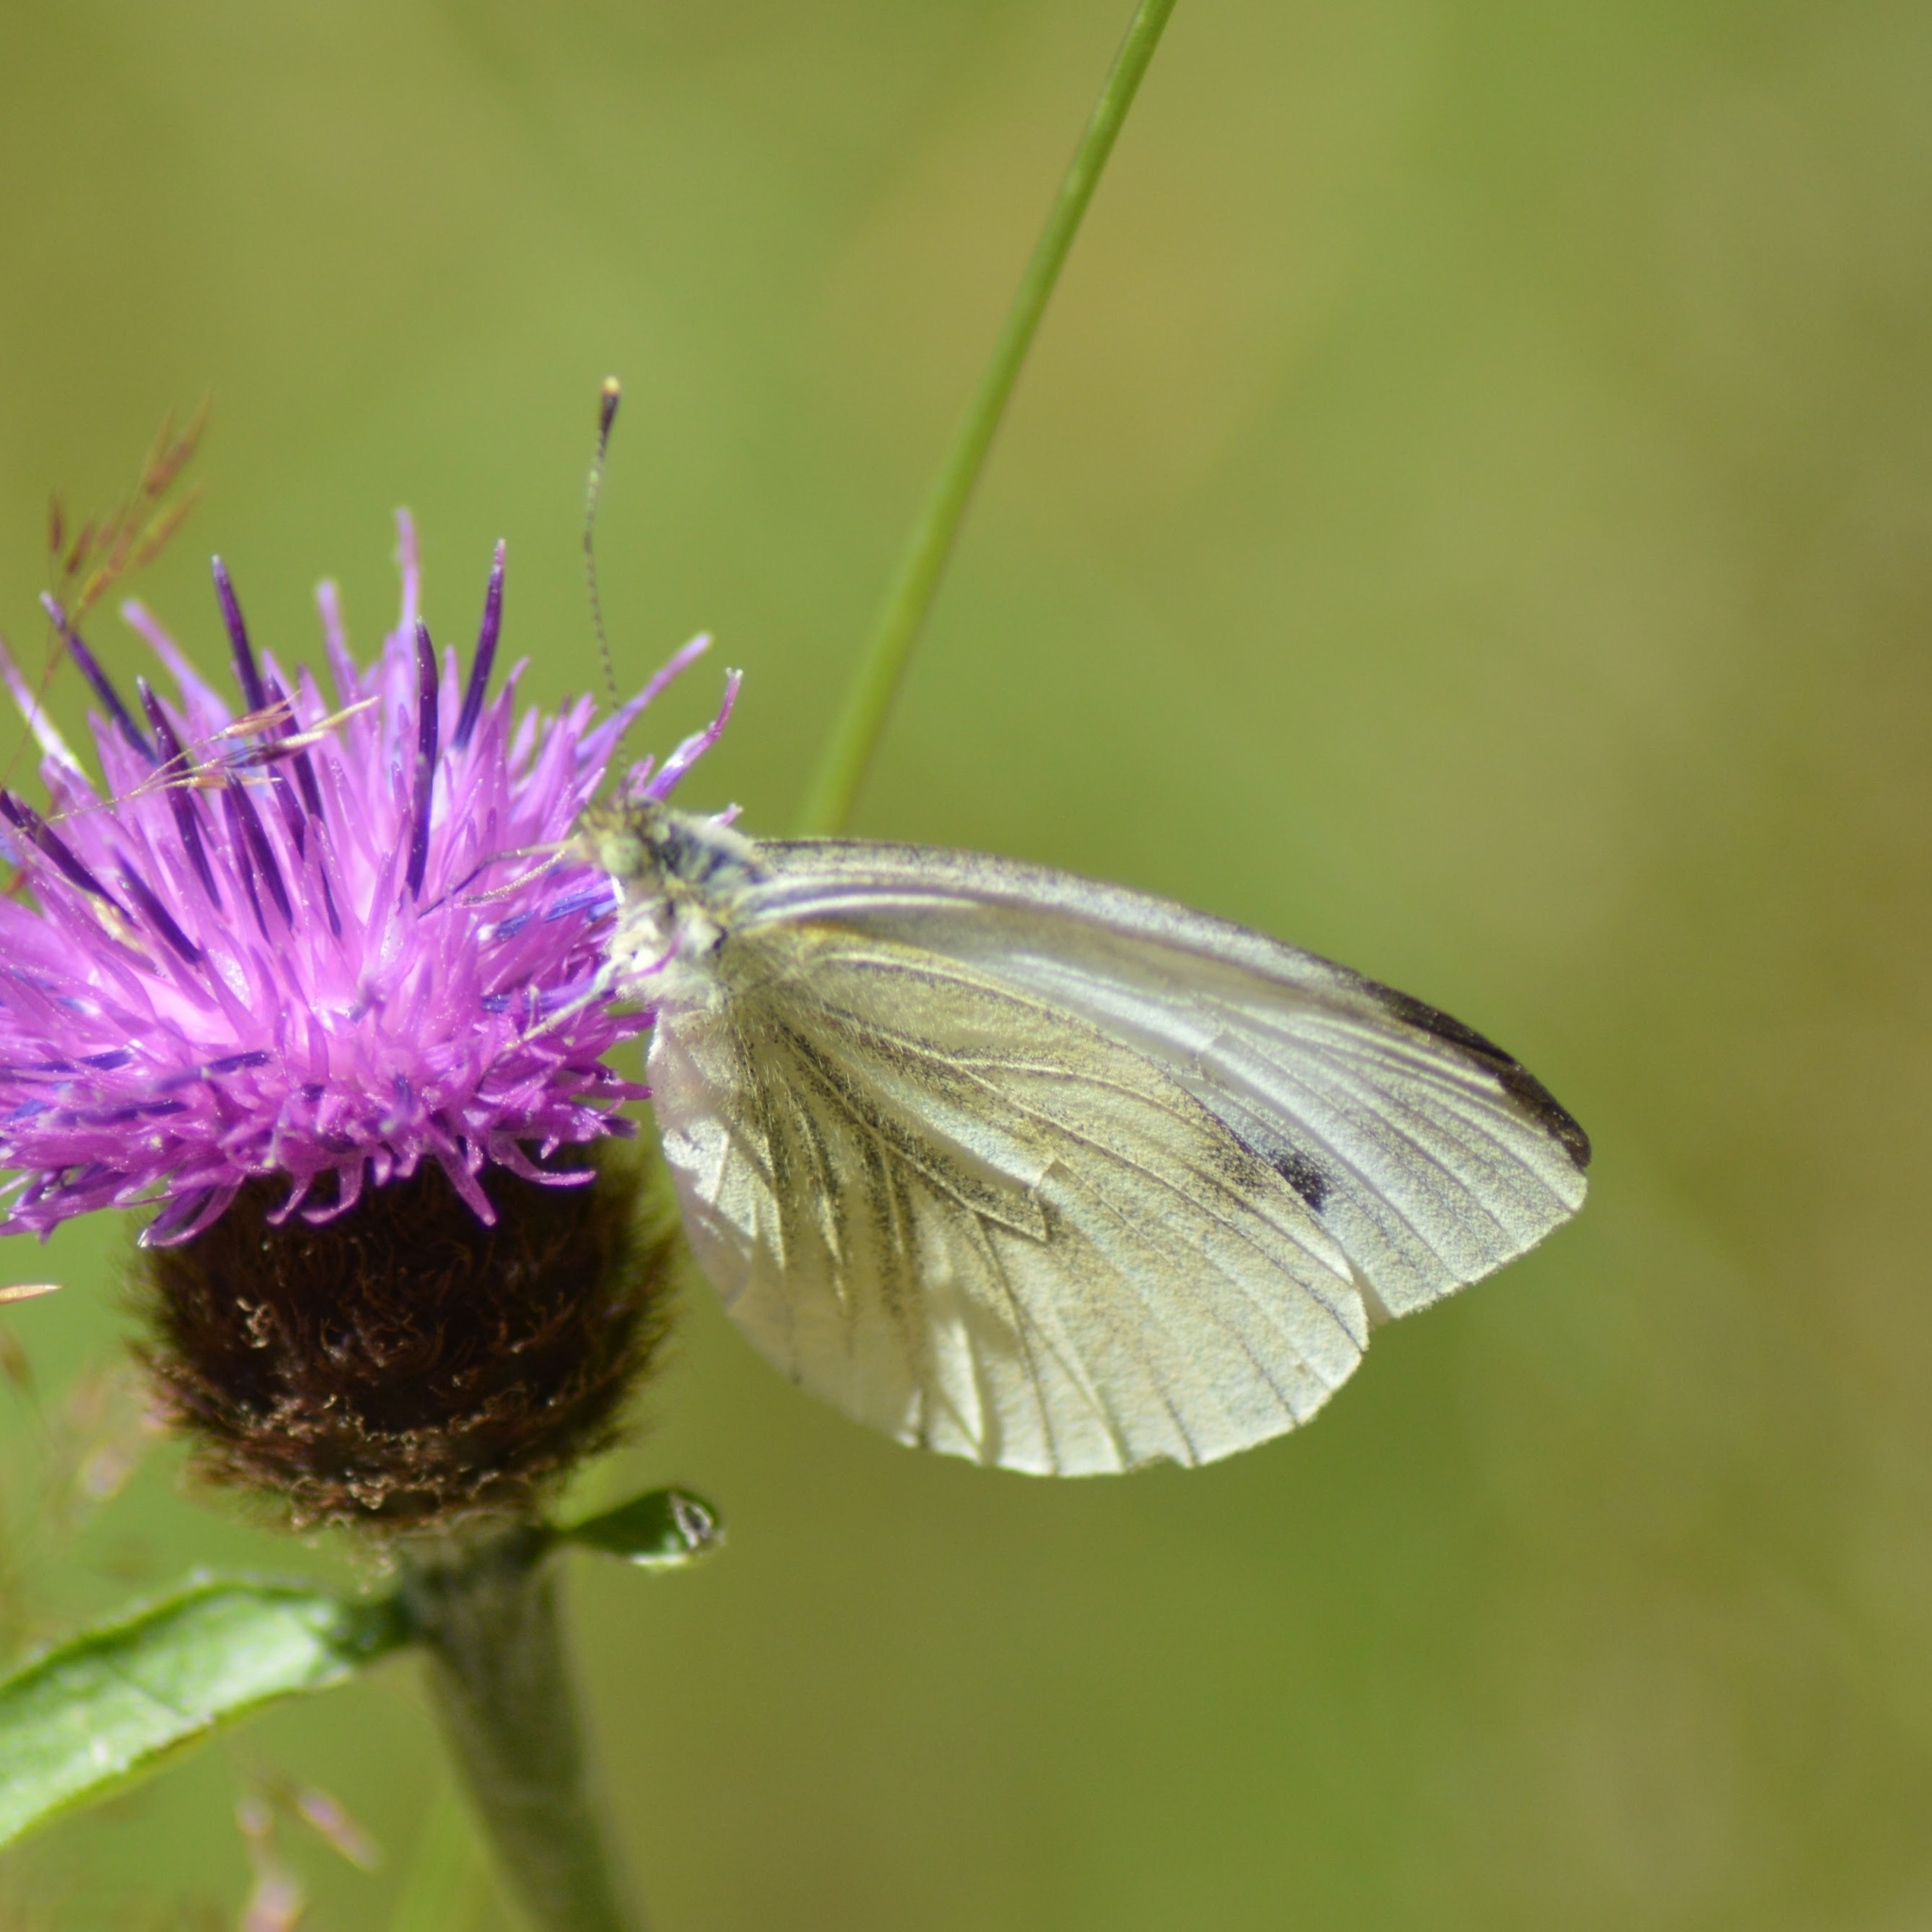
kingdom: Animalia
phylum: Arthropoda
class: Insecta
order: Lepidoptera
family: Pieridae
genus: Pieris
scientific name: Pieris napi
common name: Green-veined white
